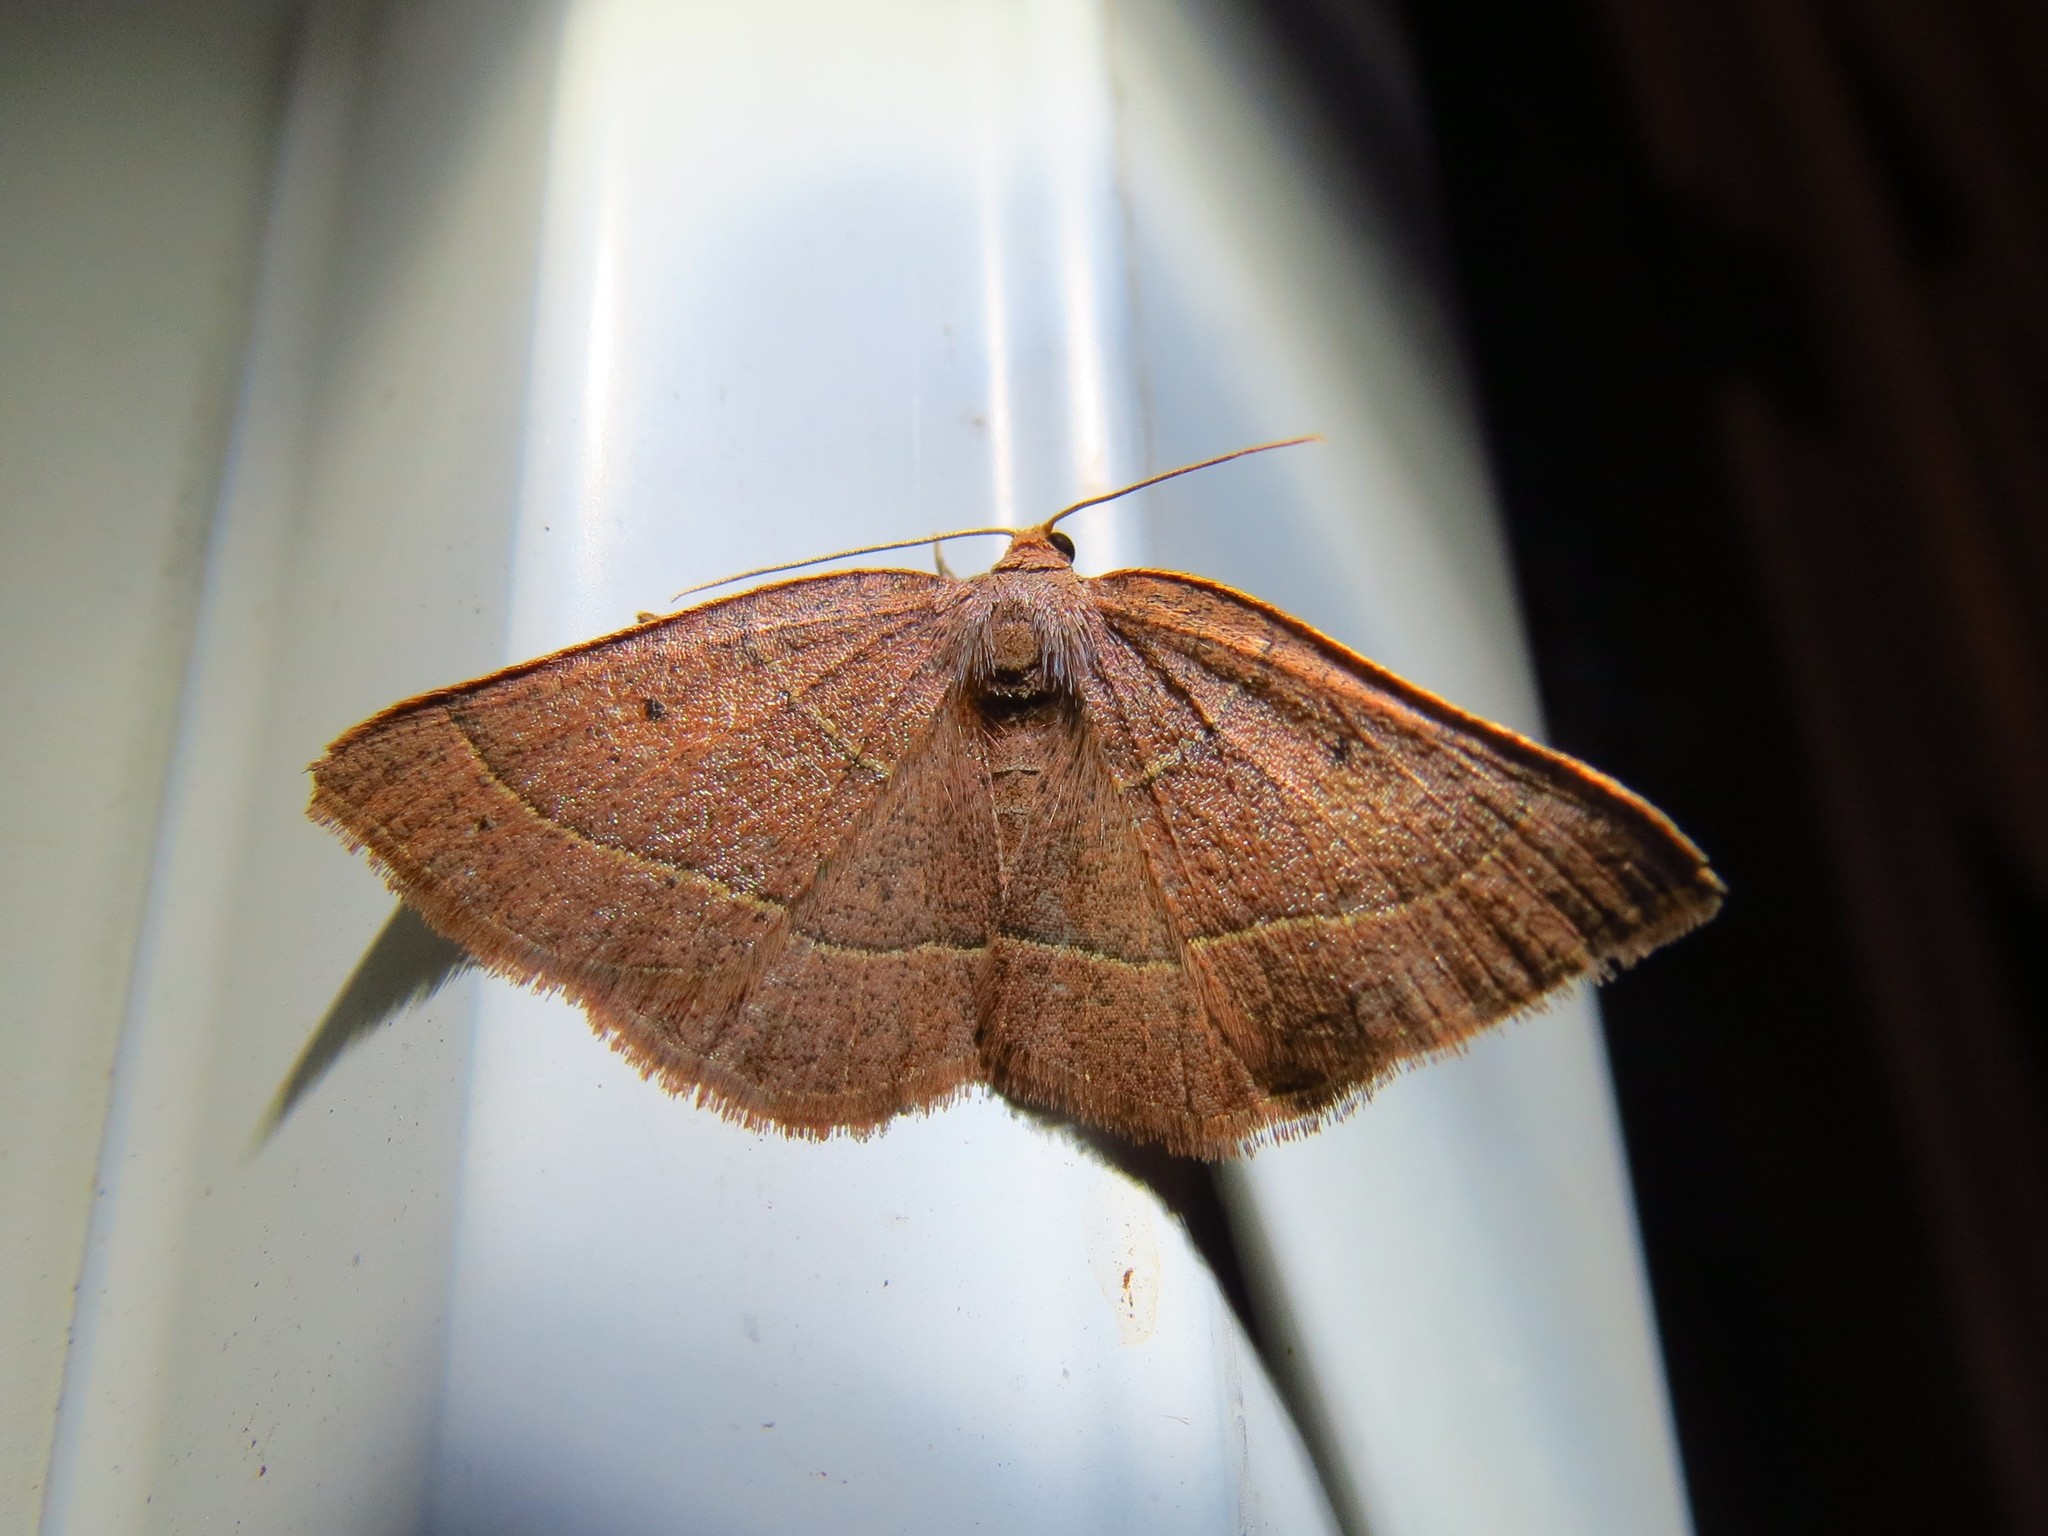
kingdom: Animalia
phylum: Arthropoda
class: Insecta
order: Lepidoptera
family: Geometridae
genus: Episemasia
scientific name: Episemasia cervinaria
